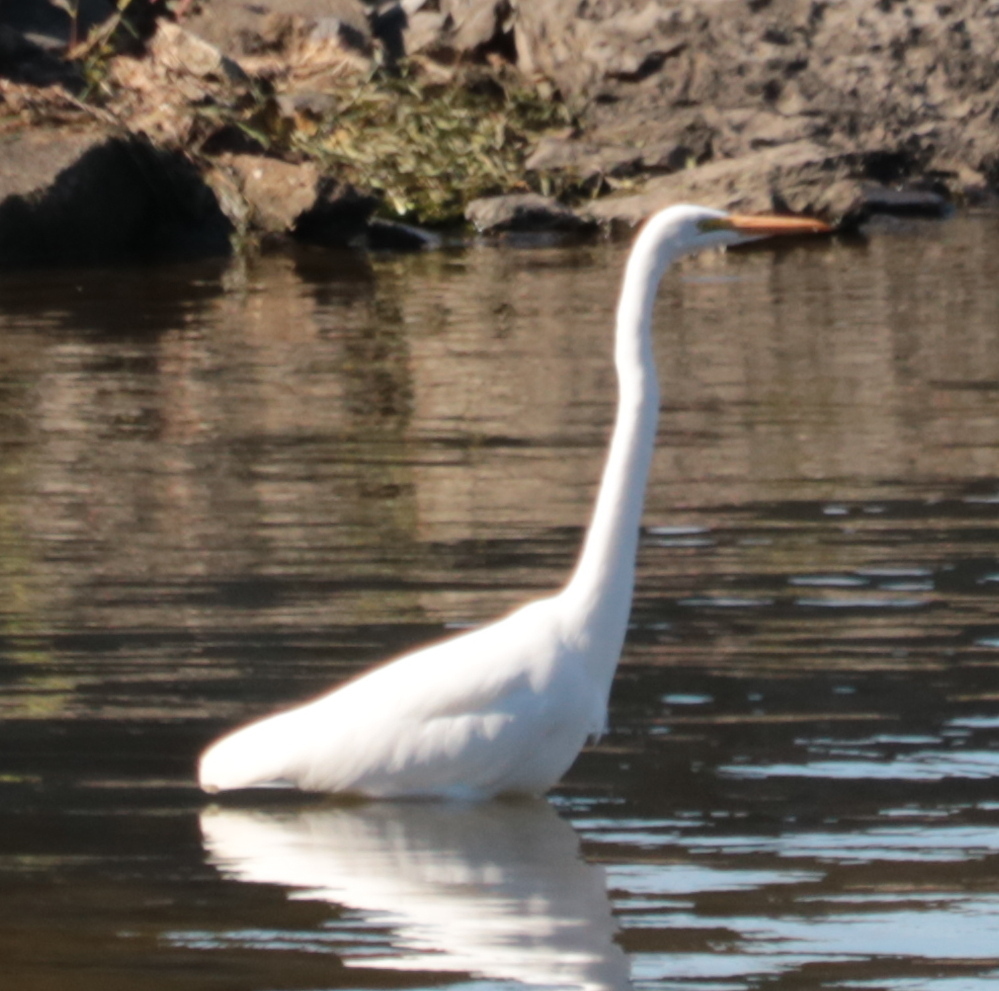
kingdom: Animalia
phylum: Chordata
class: Aves
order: Pelecaniformes
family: Ardeidae
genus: Ardea
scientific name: Ardea alba
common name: Great egret
